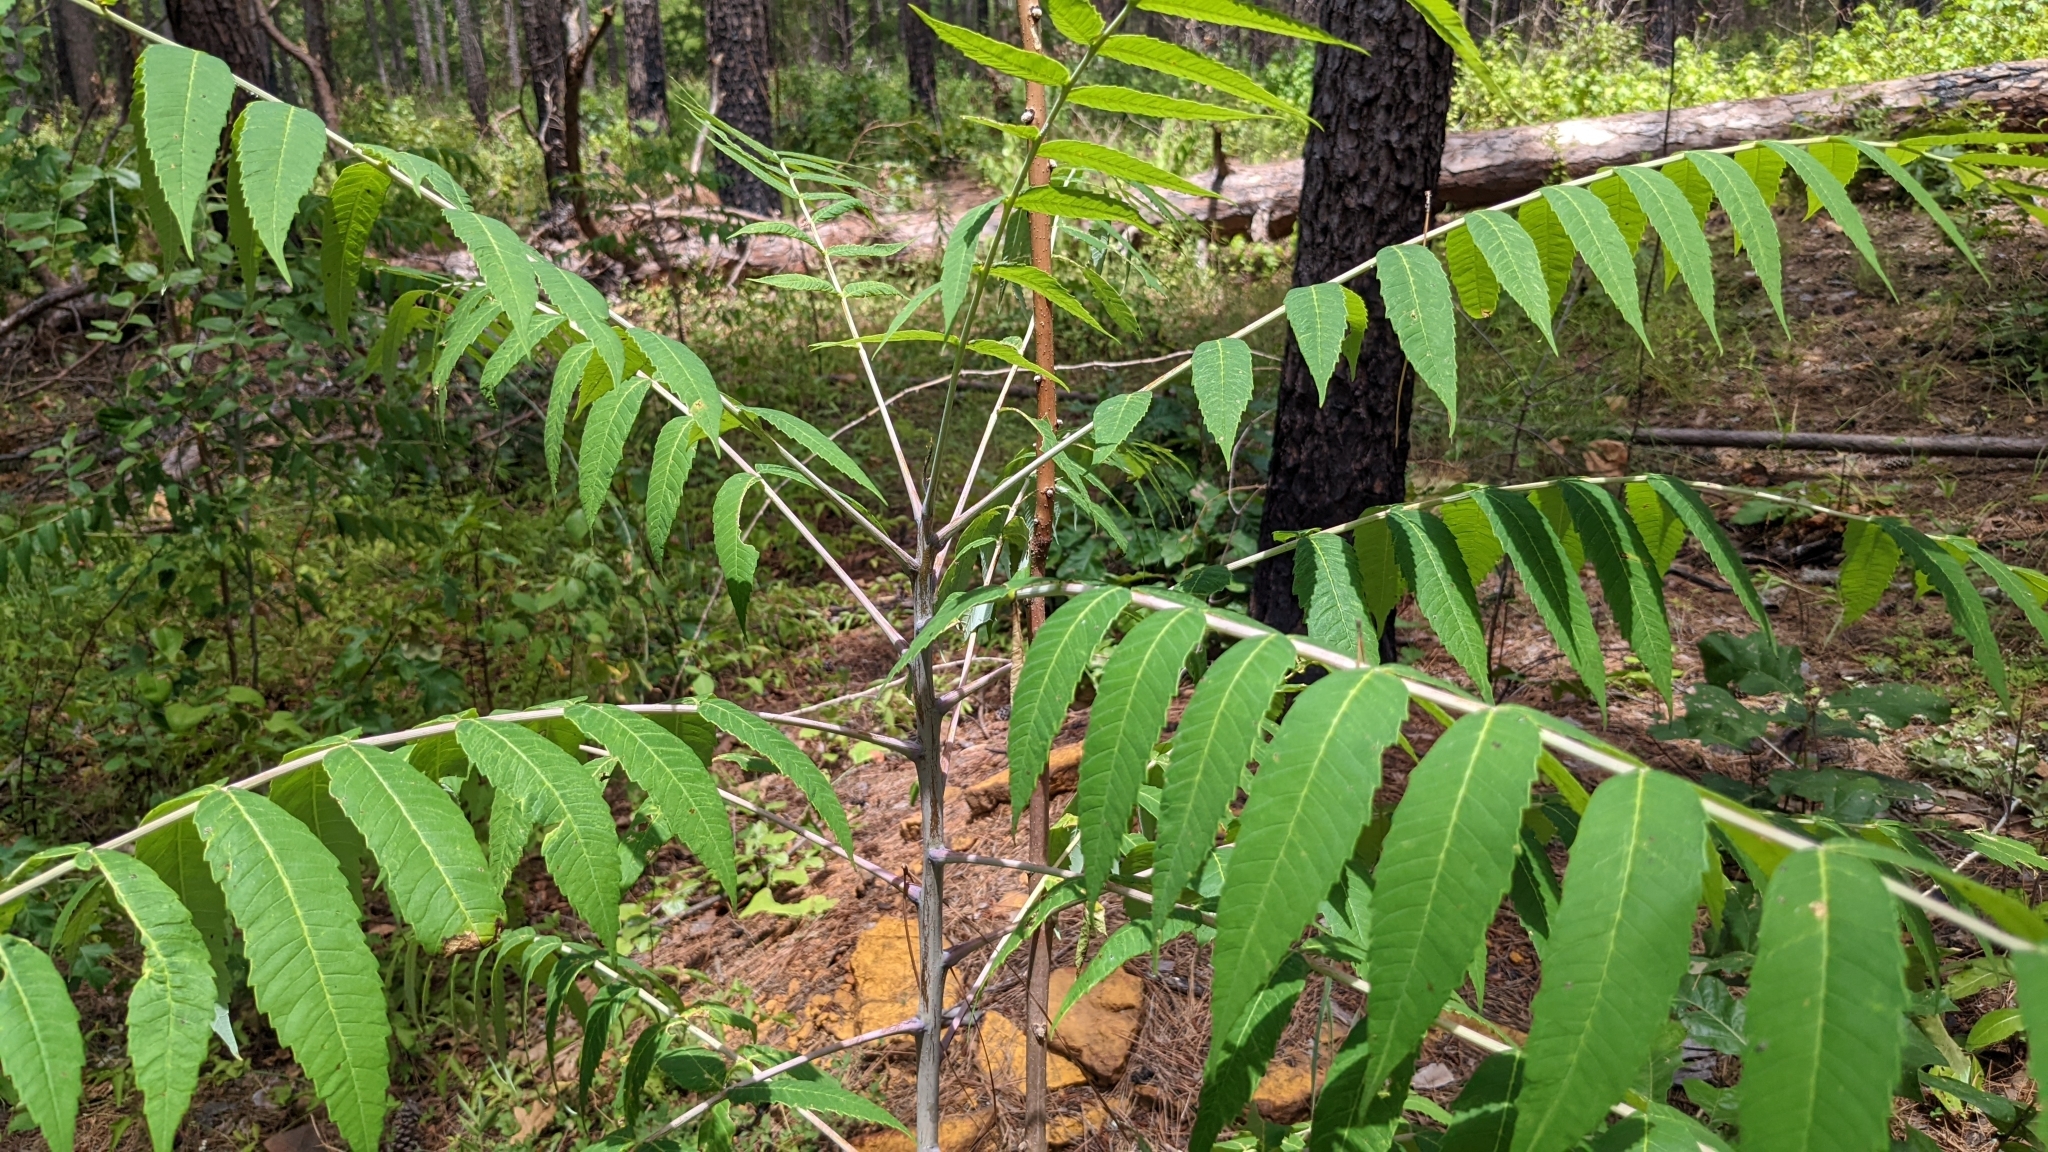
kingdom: Plantae
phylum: Tracheophyta
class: Magnoliopsida
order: Sapindales
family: Anacardiaceae
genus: Rhus
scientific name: Rhus glabra
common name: Scarlet sumac
